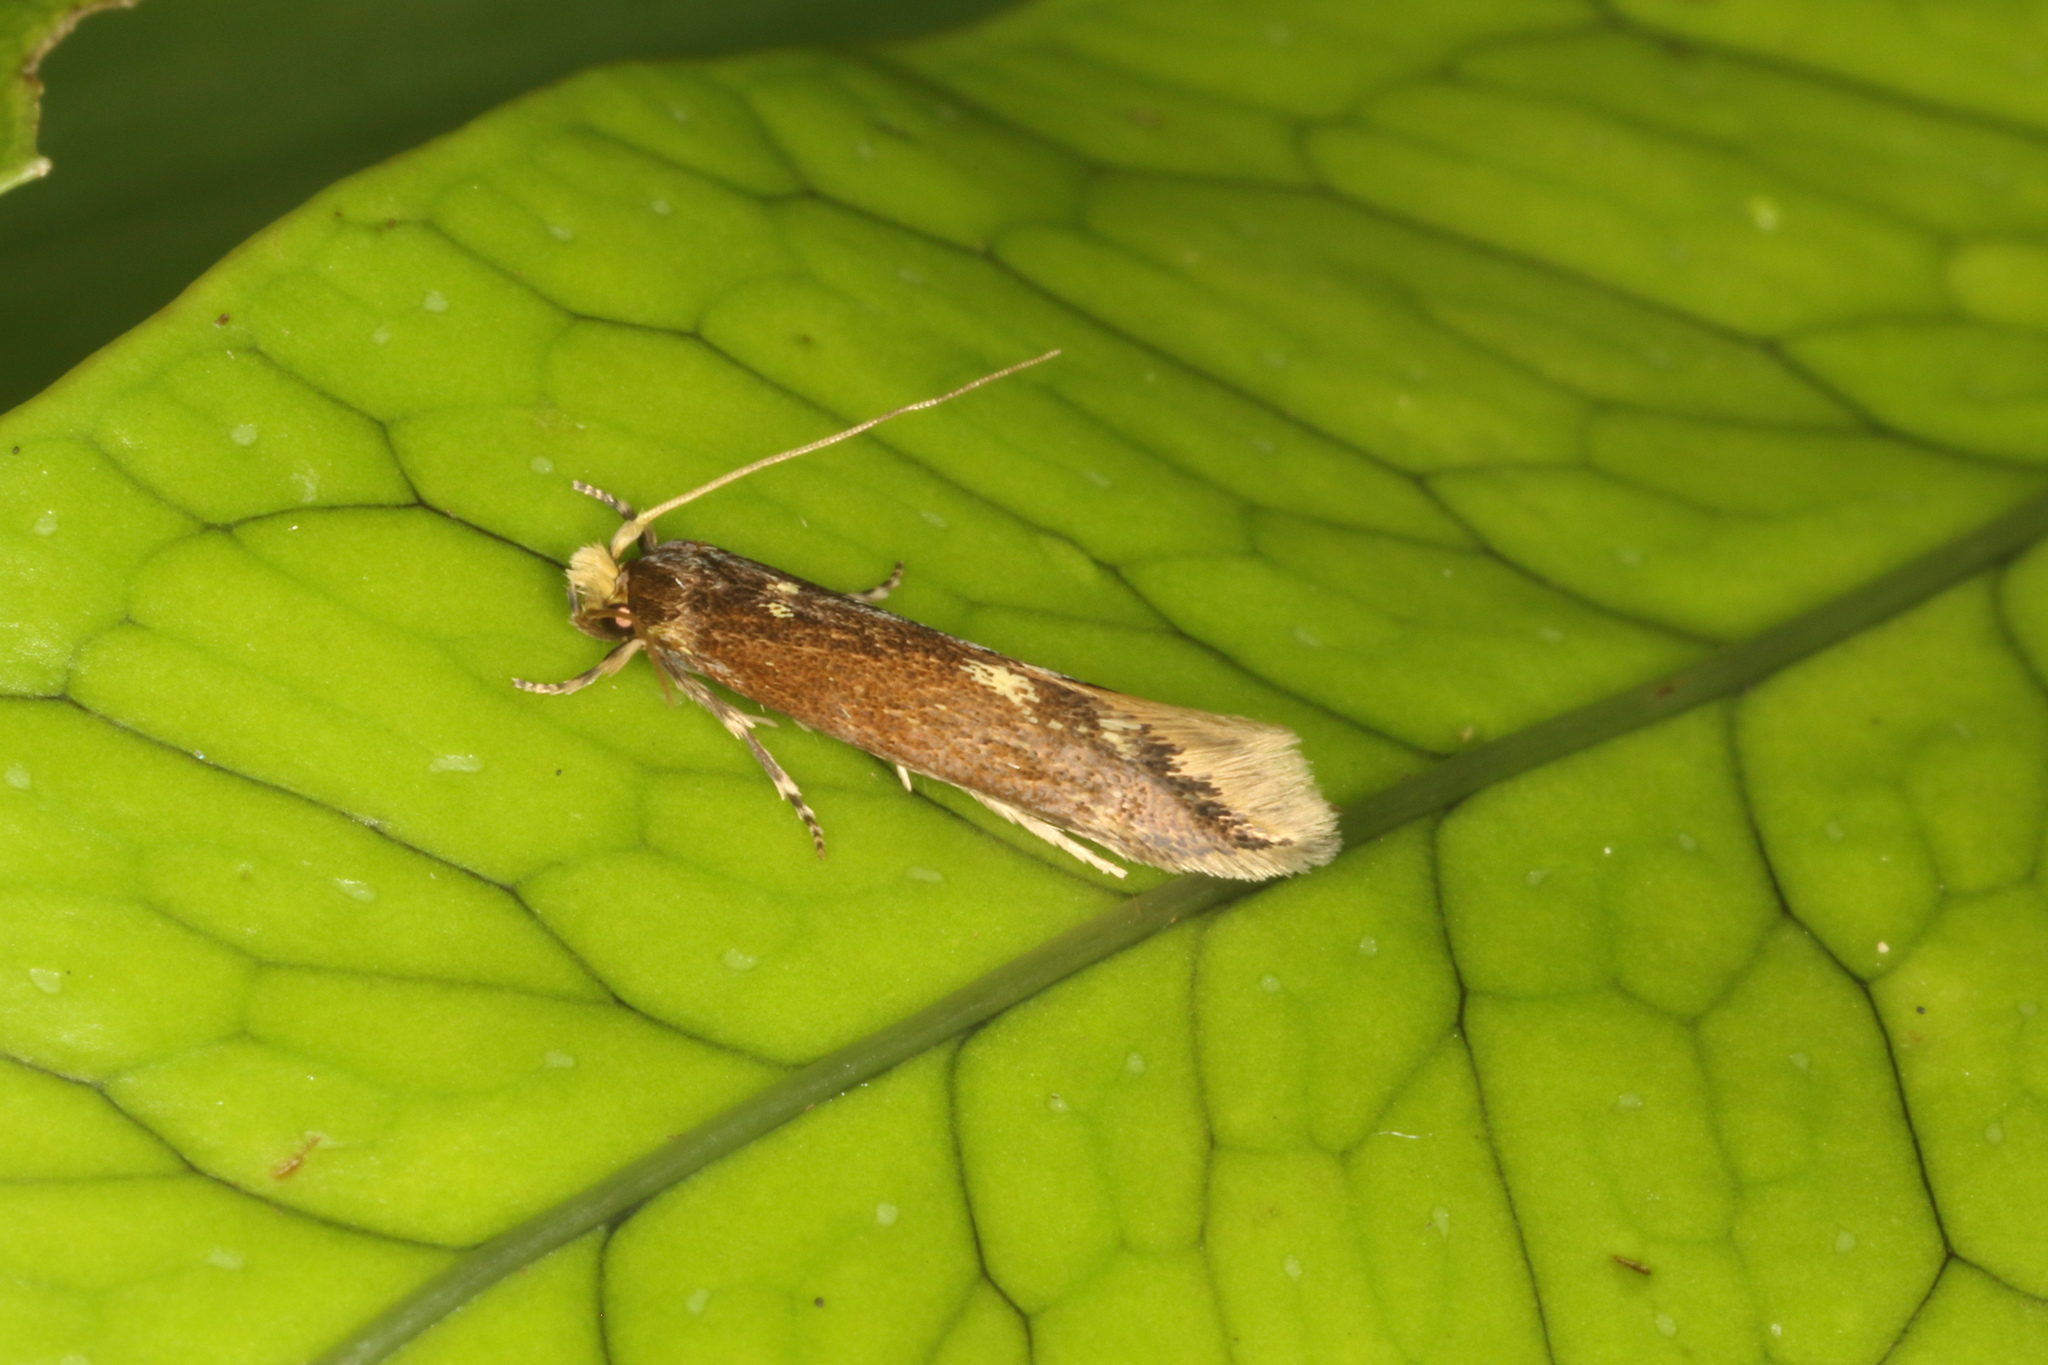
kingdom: Animalia
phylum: Arthropoda
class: Insecta
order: Lepidoptera
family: Tineidae
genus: Opogona
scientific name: Opogona omoscopa
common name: Moth
